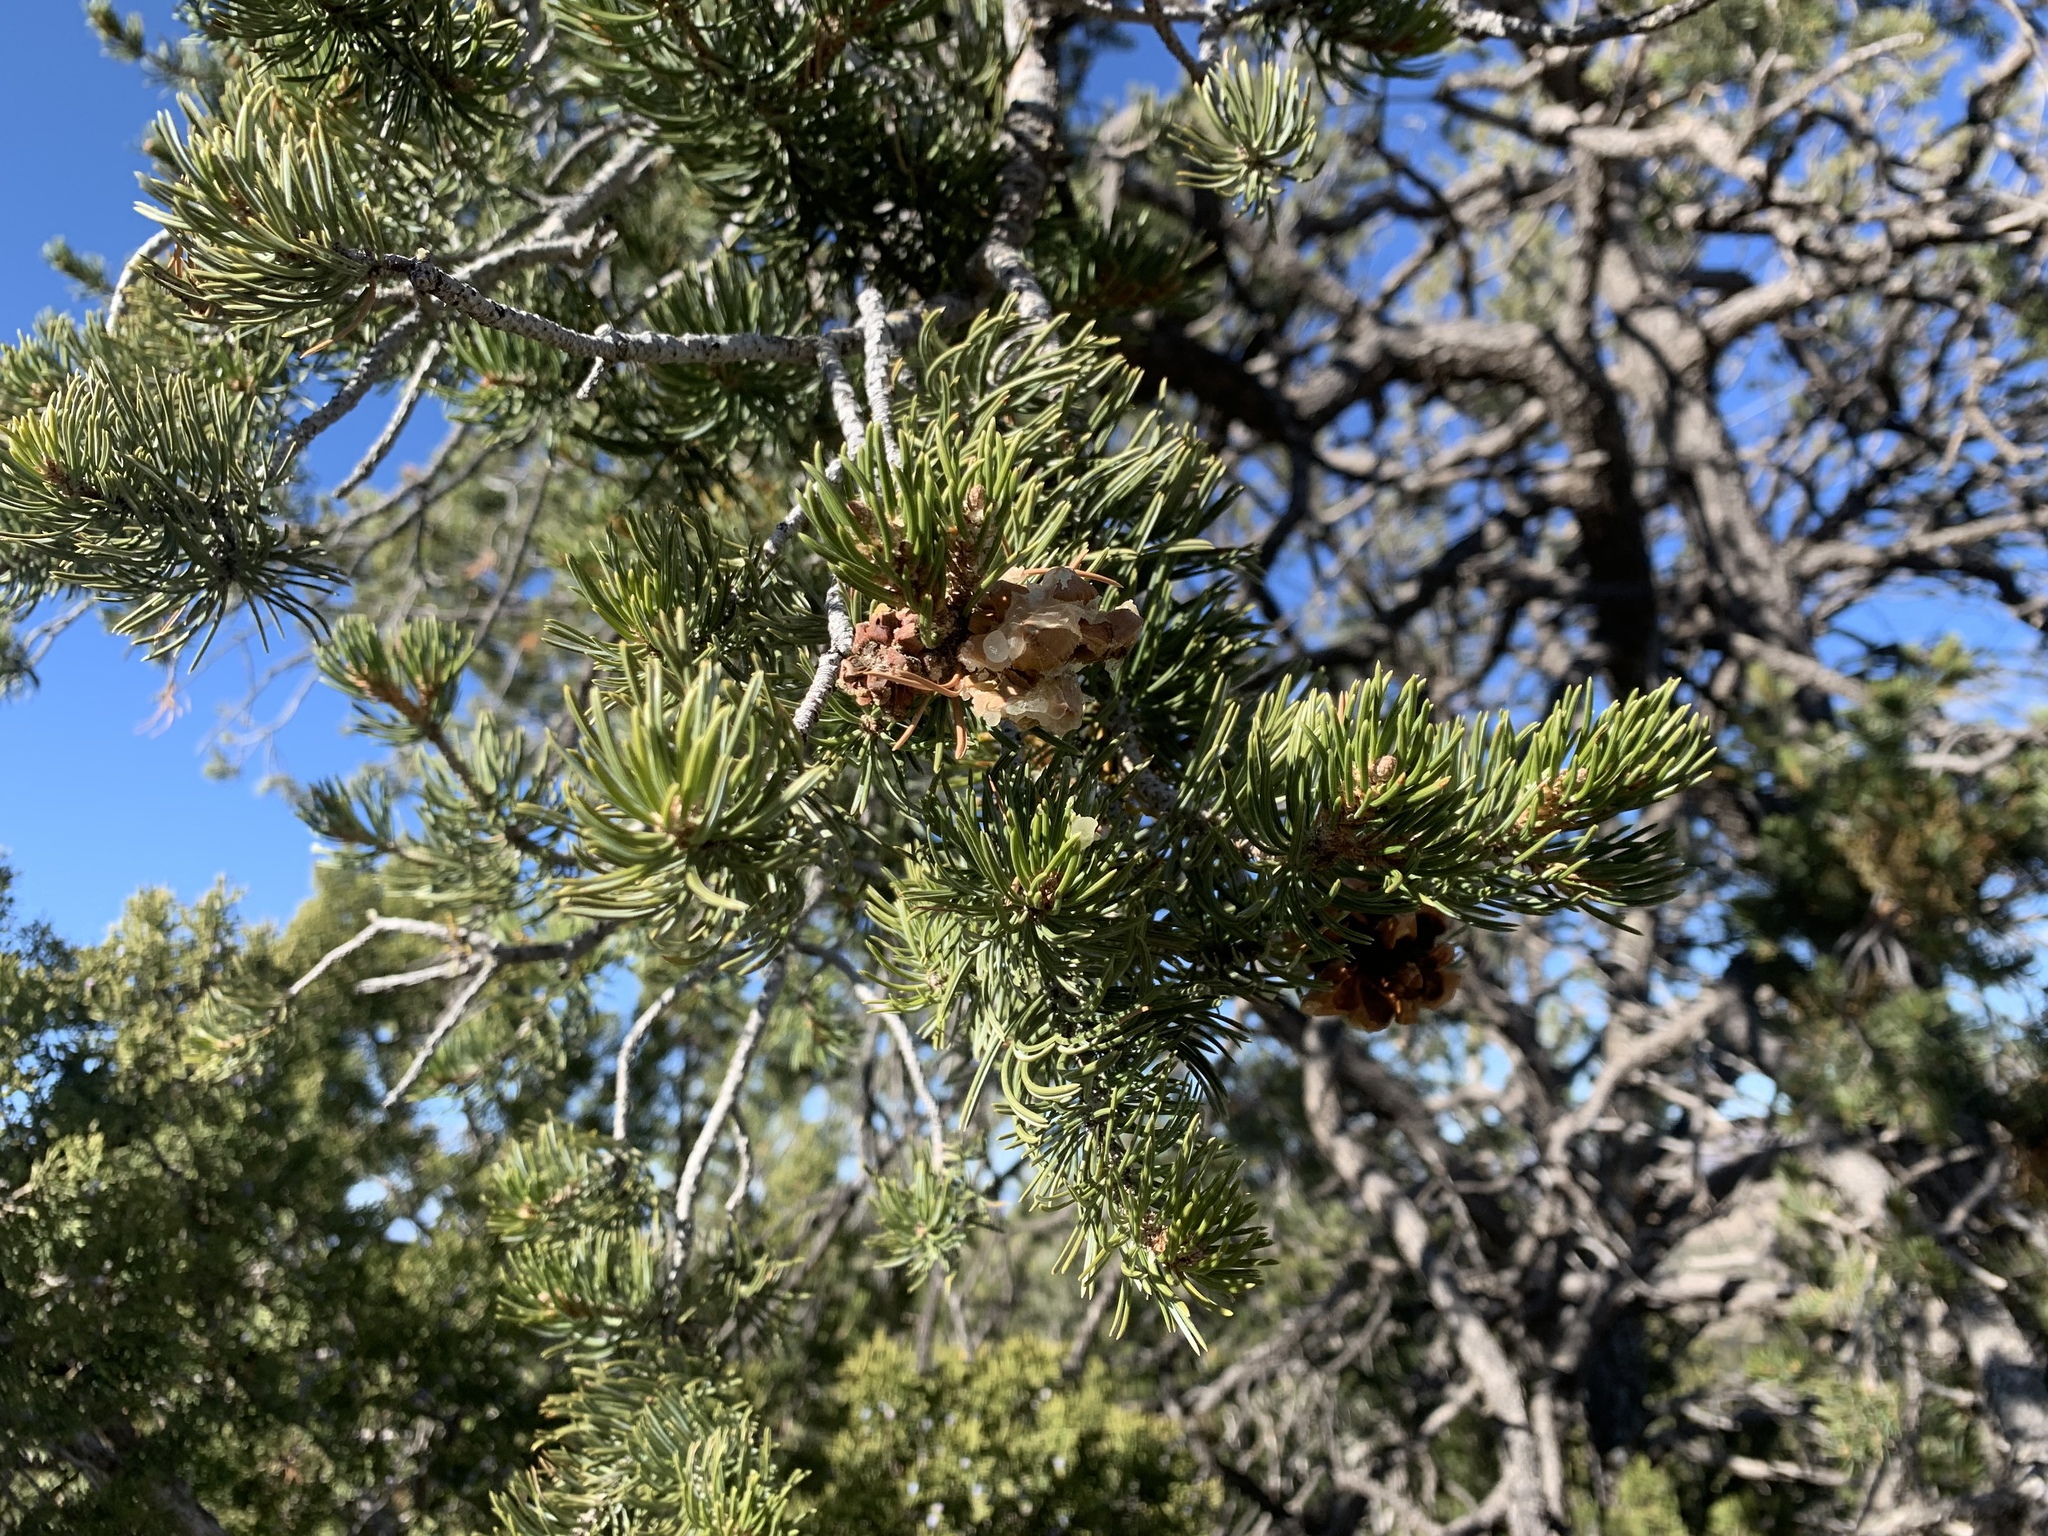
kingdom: Plantae
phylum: Tracheophyta
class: Pinopsida
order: Pinales
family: Pinaceae
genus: Pinus
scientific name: Pinus edulis
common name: Colorado pinyon
